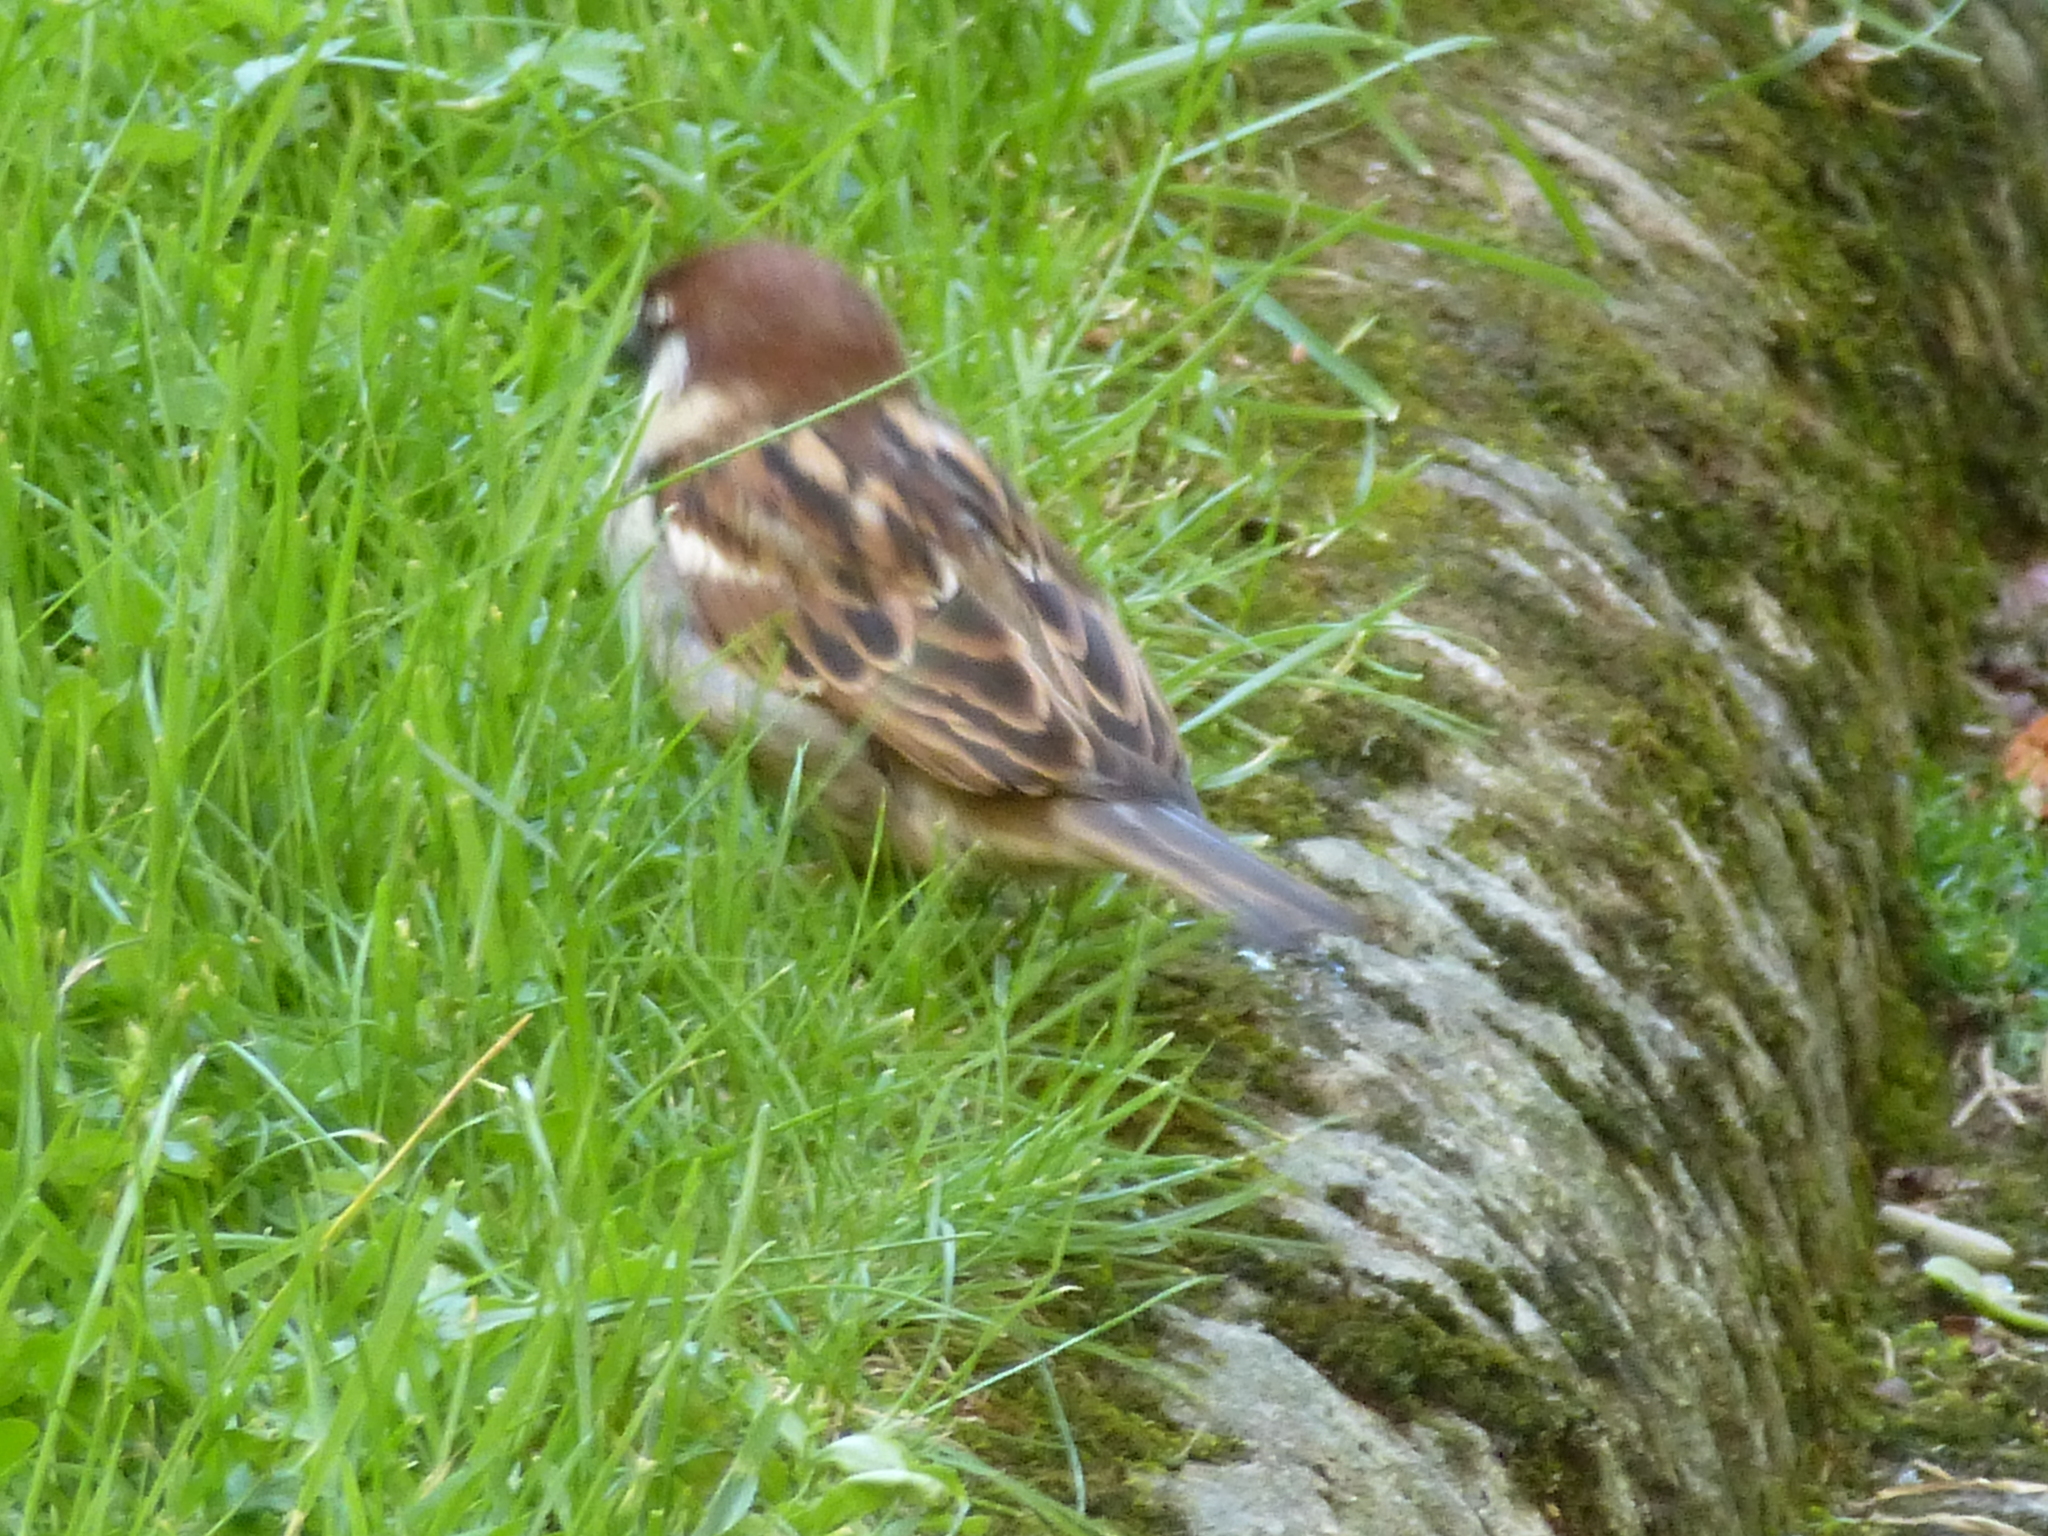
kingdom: Animalia
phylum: Chordata
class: Aves
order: Passeriformes
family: Passeridae
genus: Passer
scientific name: Passer italiae
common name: Italian sparrow
